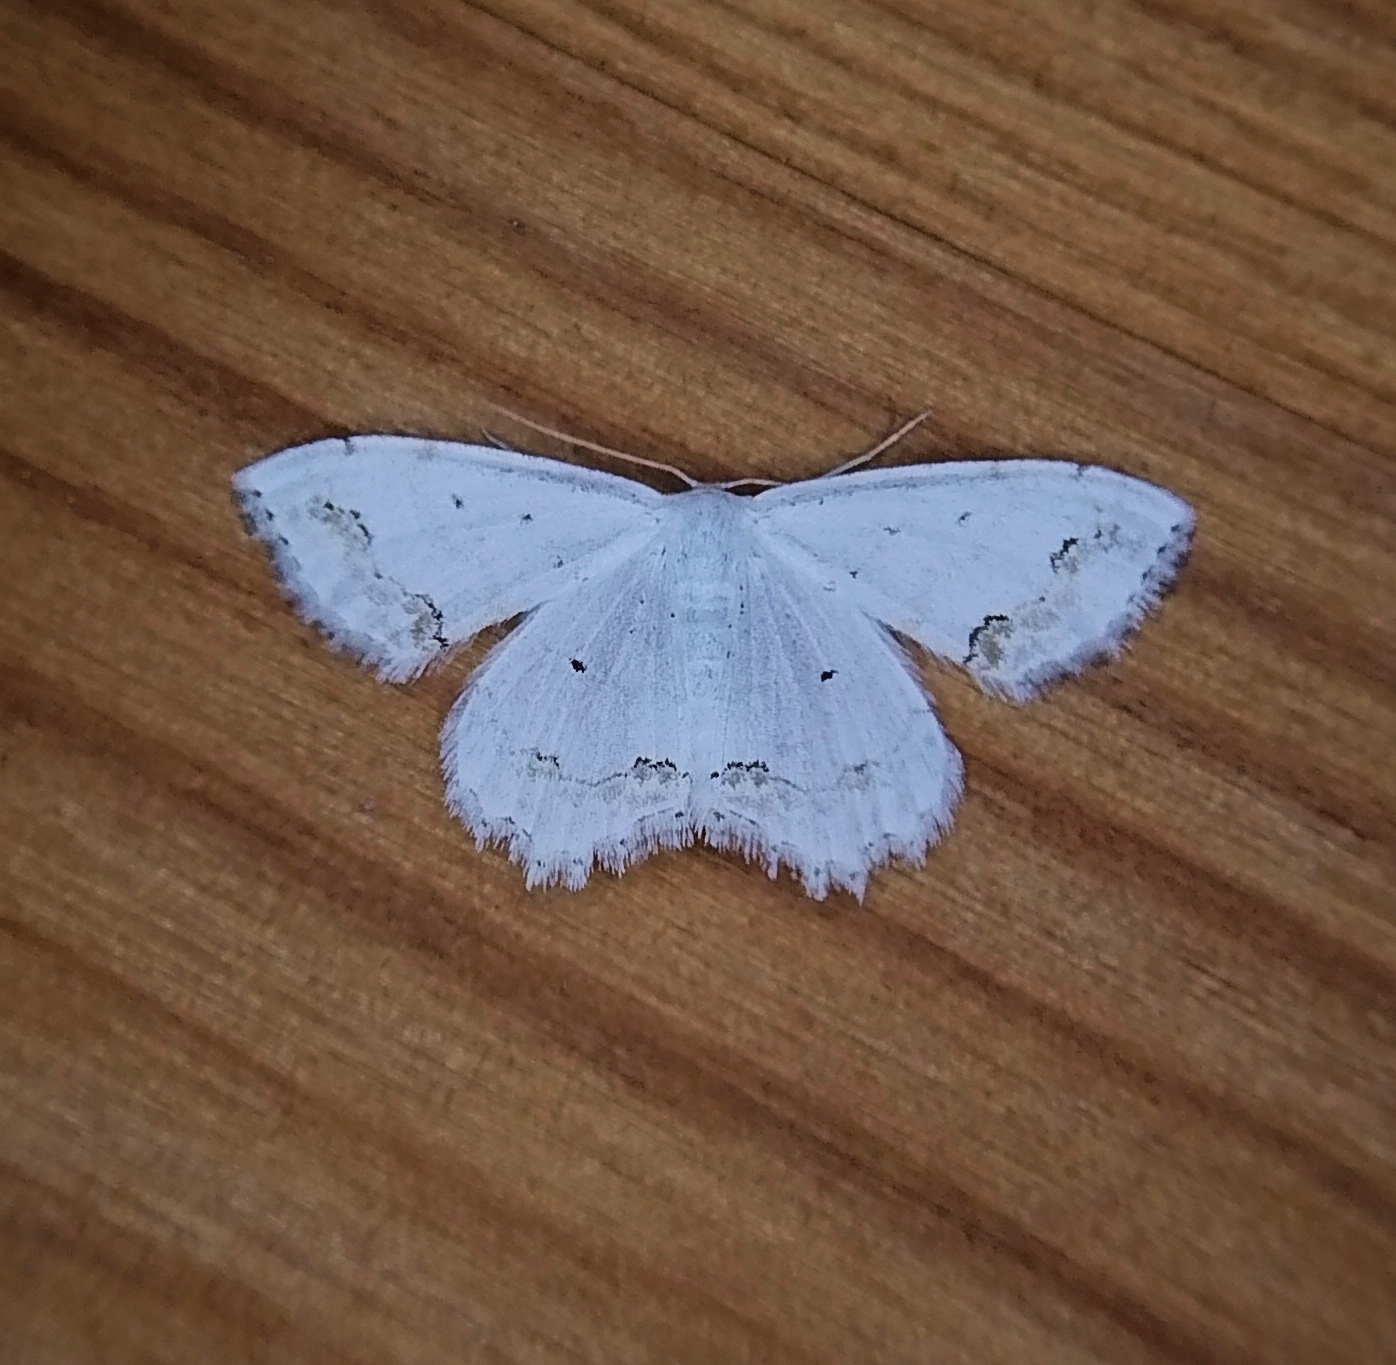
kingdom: Animalia
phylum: Arthropoda
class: Insecta
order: Lepidoptera
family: Geometridae
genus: Scopula
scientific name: Scopula ornata
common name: Lace border
